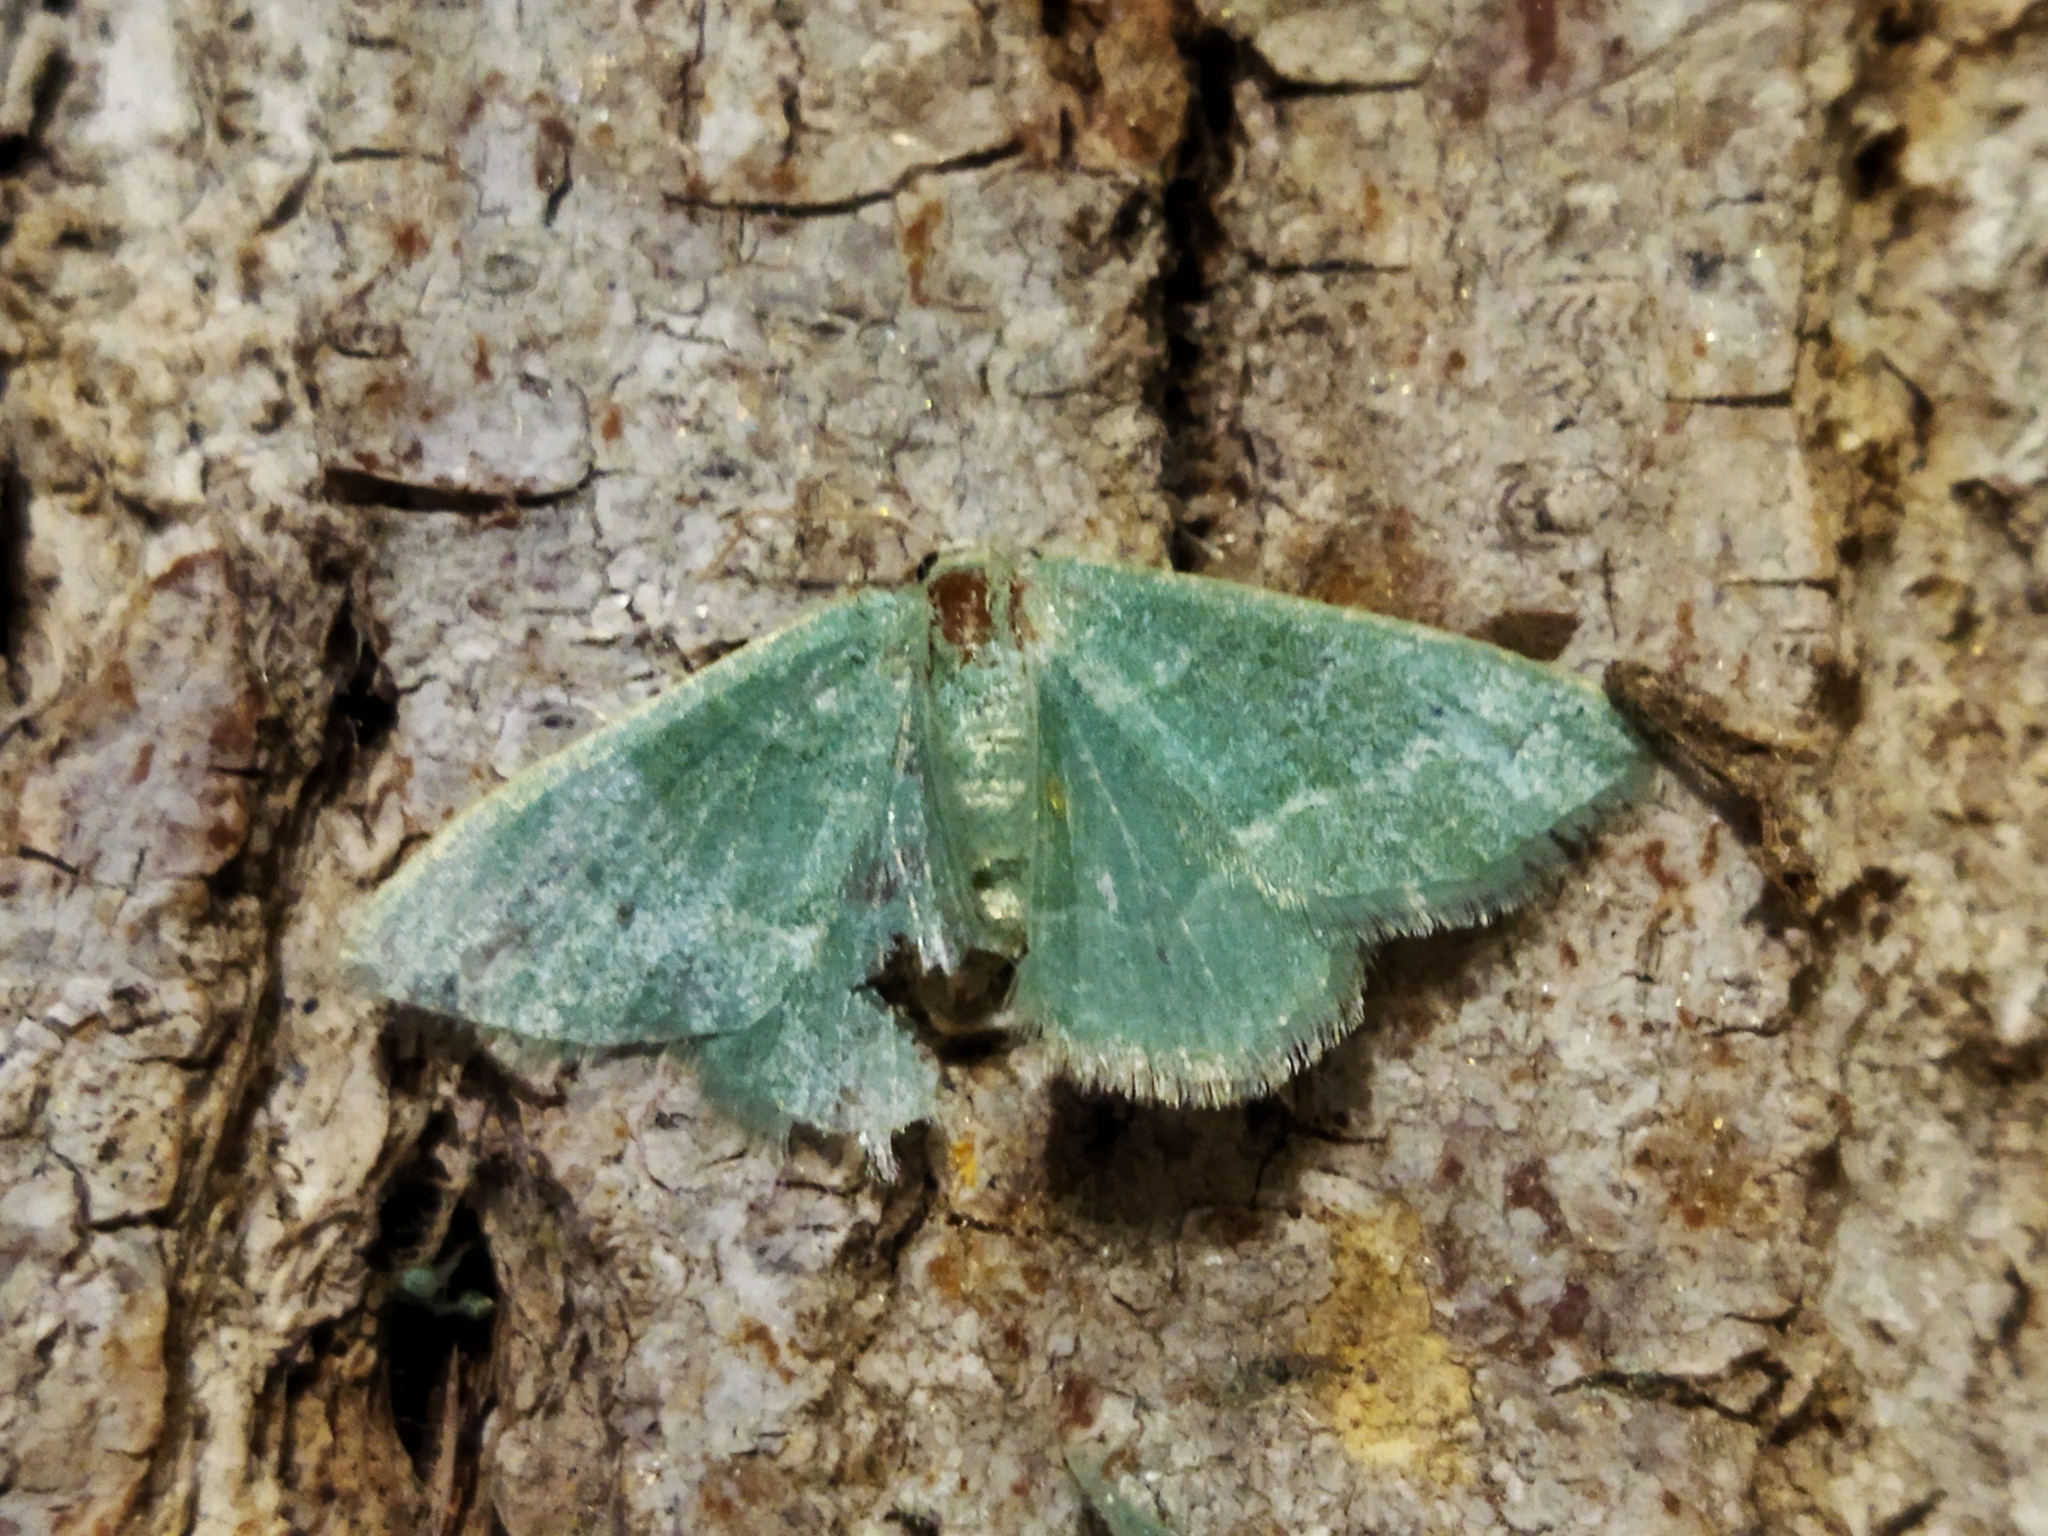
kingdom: Animalia
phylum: Arthropoda
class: Insecta
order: Lepidoptera
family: Geometridae
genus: Chlorissa
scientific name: Chlorissa
